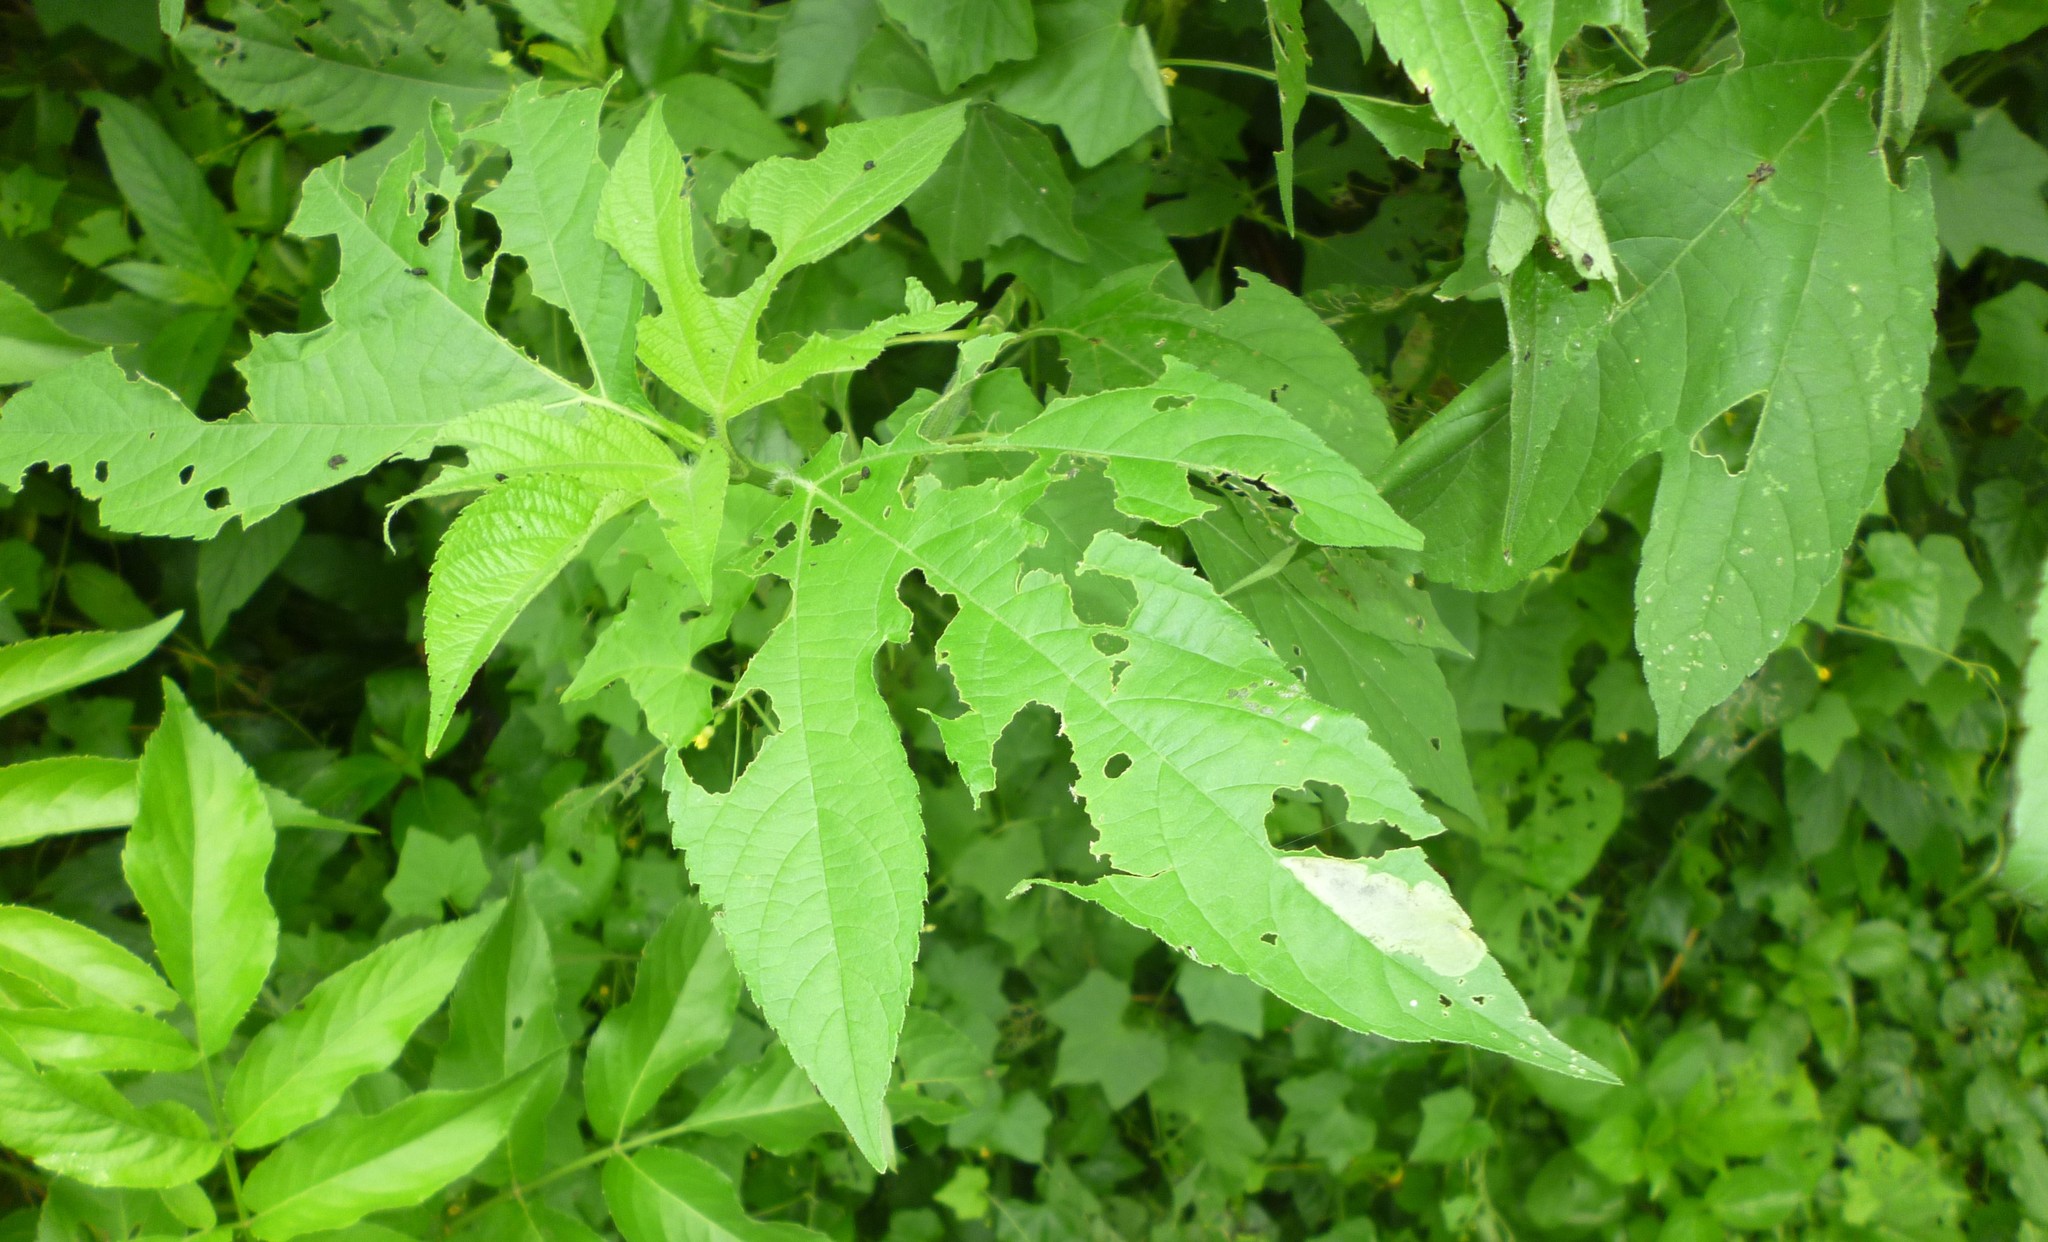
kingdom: Plantae
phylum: Tracheophyta
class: Magnoliopsida
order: Asterales
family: Asteraceae
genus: Ambrosia
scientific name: Ambrosia trifida
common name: Giant ragweed
